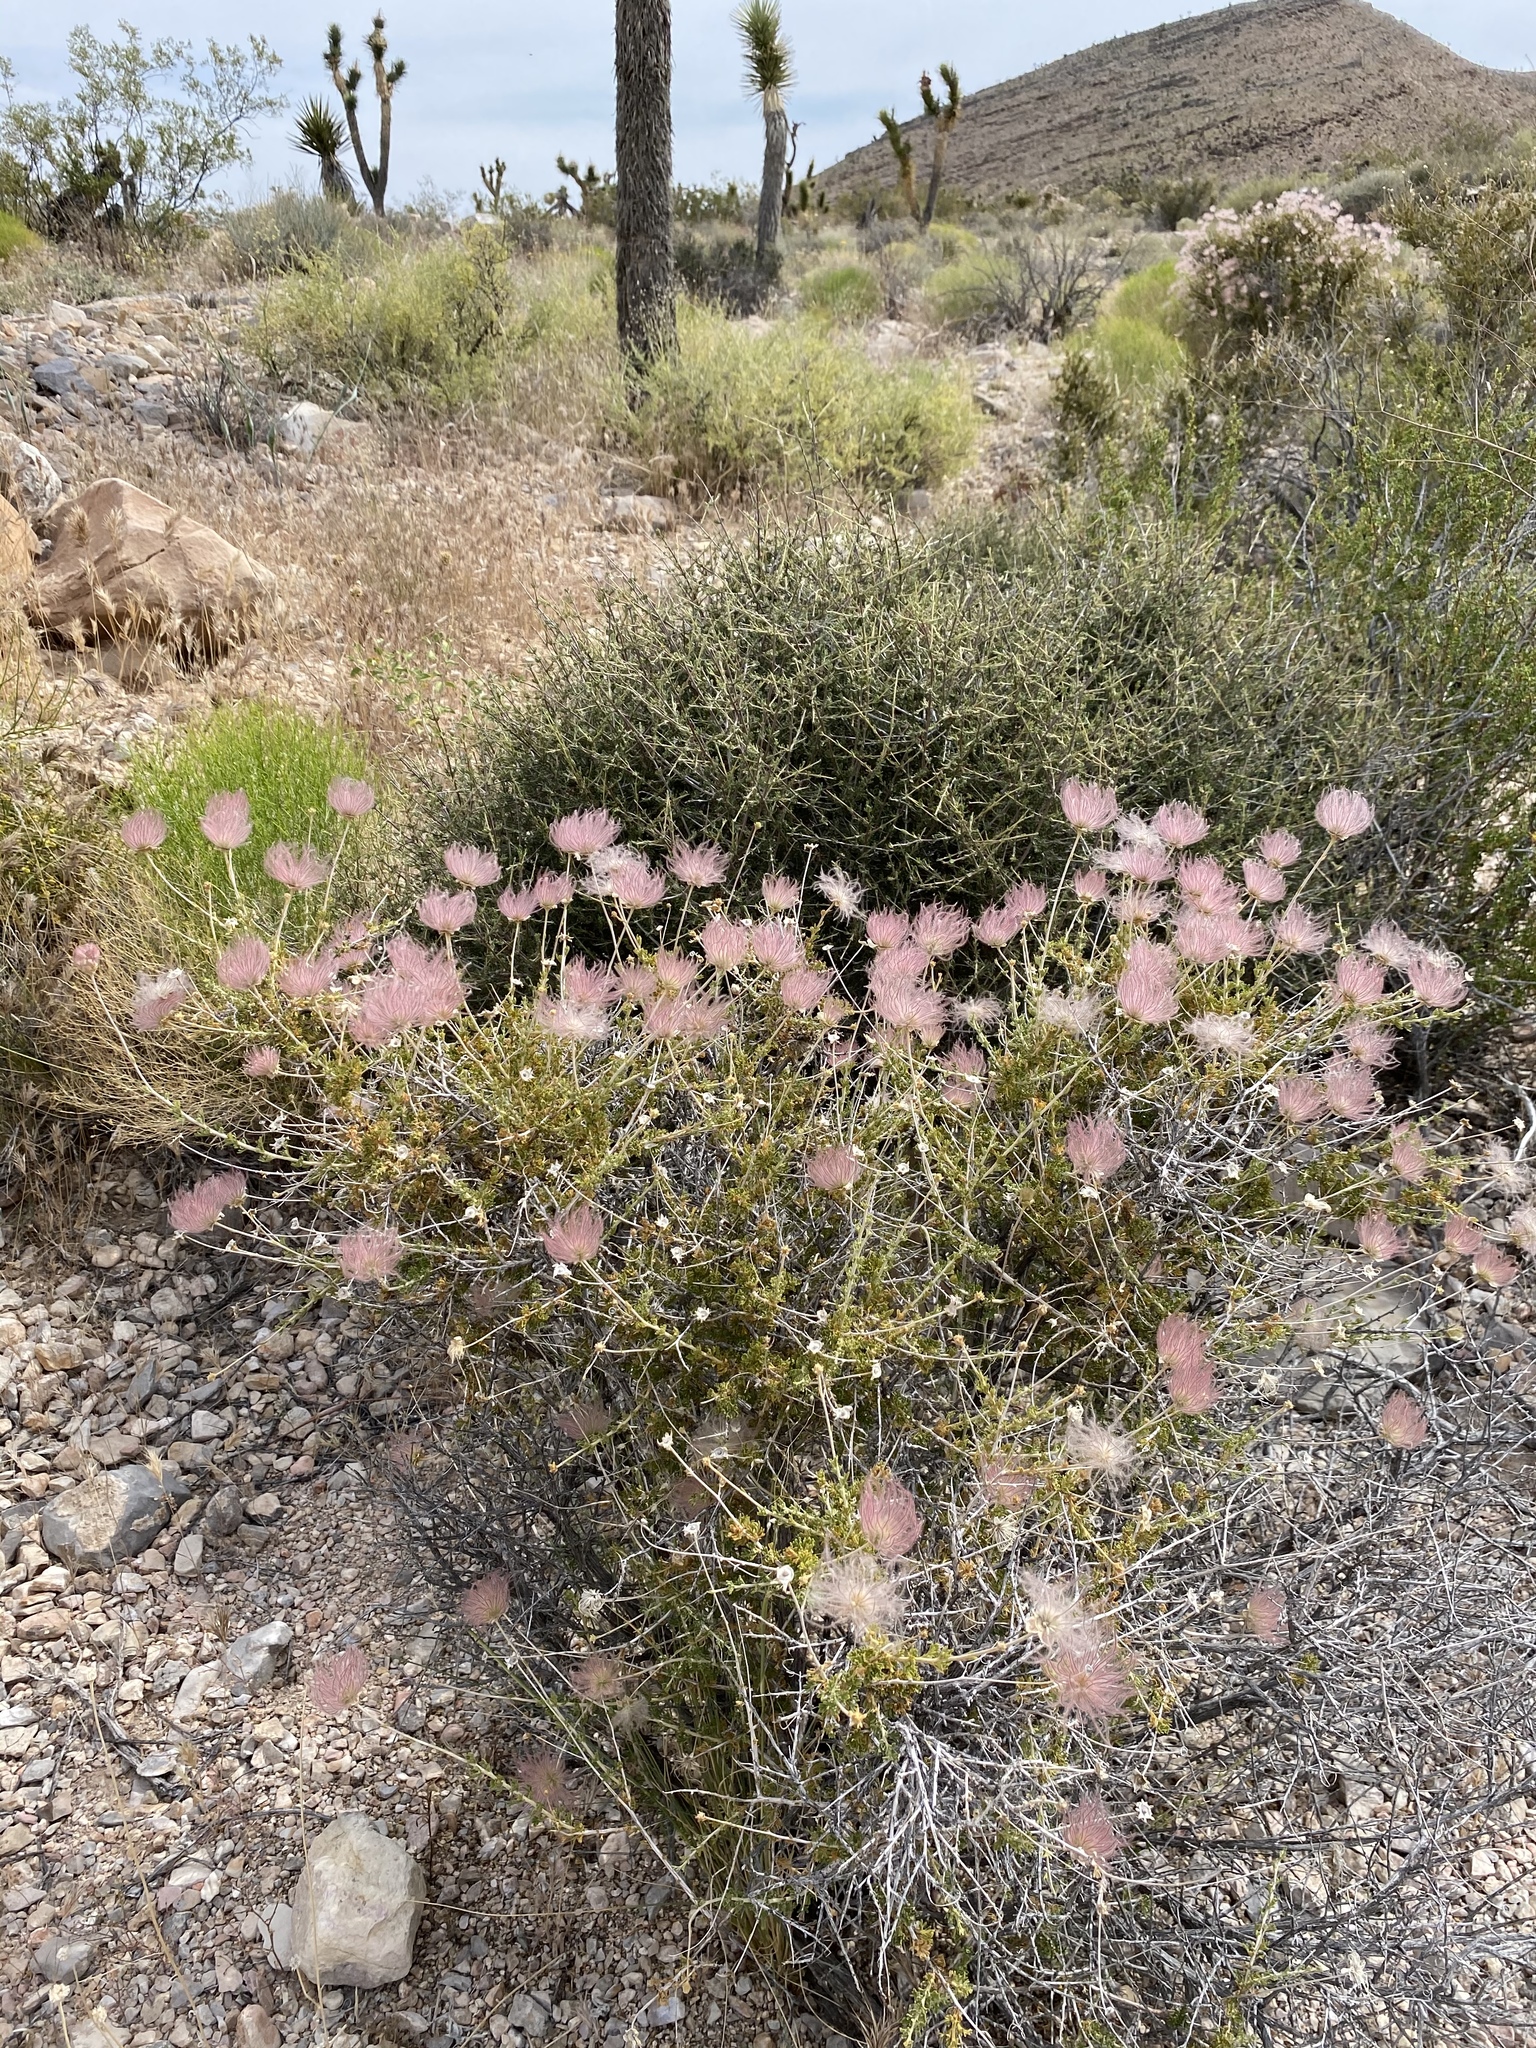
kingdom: Plantae
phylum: Tracheophyta
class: Magnoliopsida
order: Rosales
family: Rosaceae
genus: Fallugia
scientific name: Fallugia paradoxa
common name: Apache-plume
